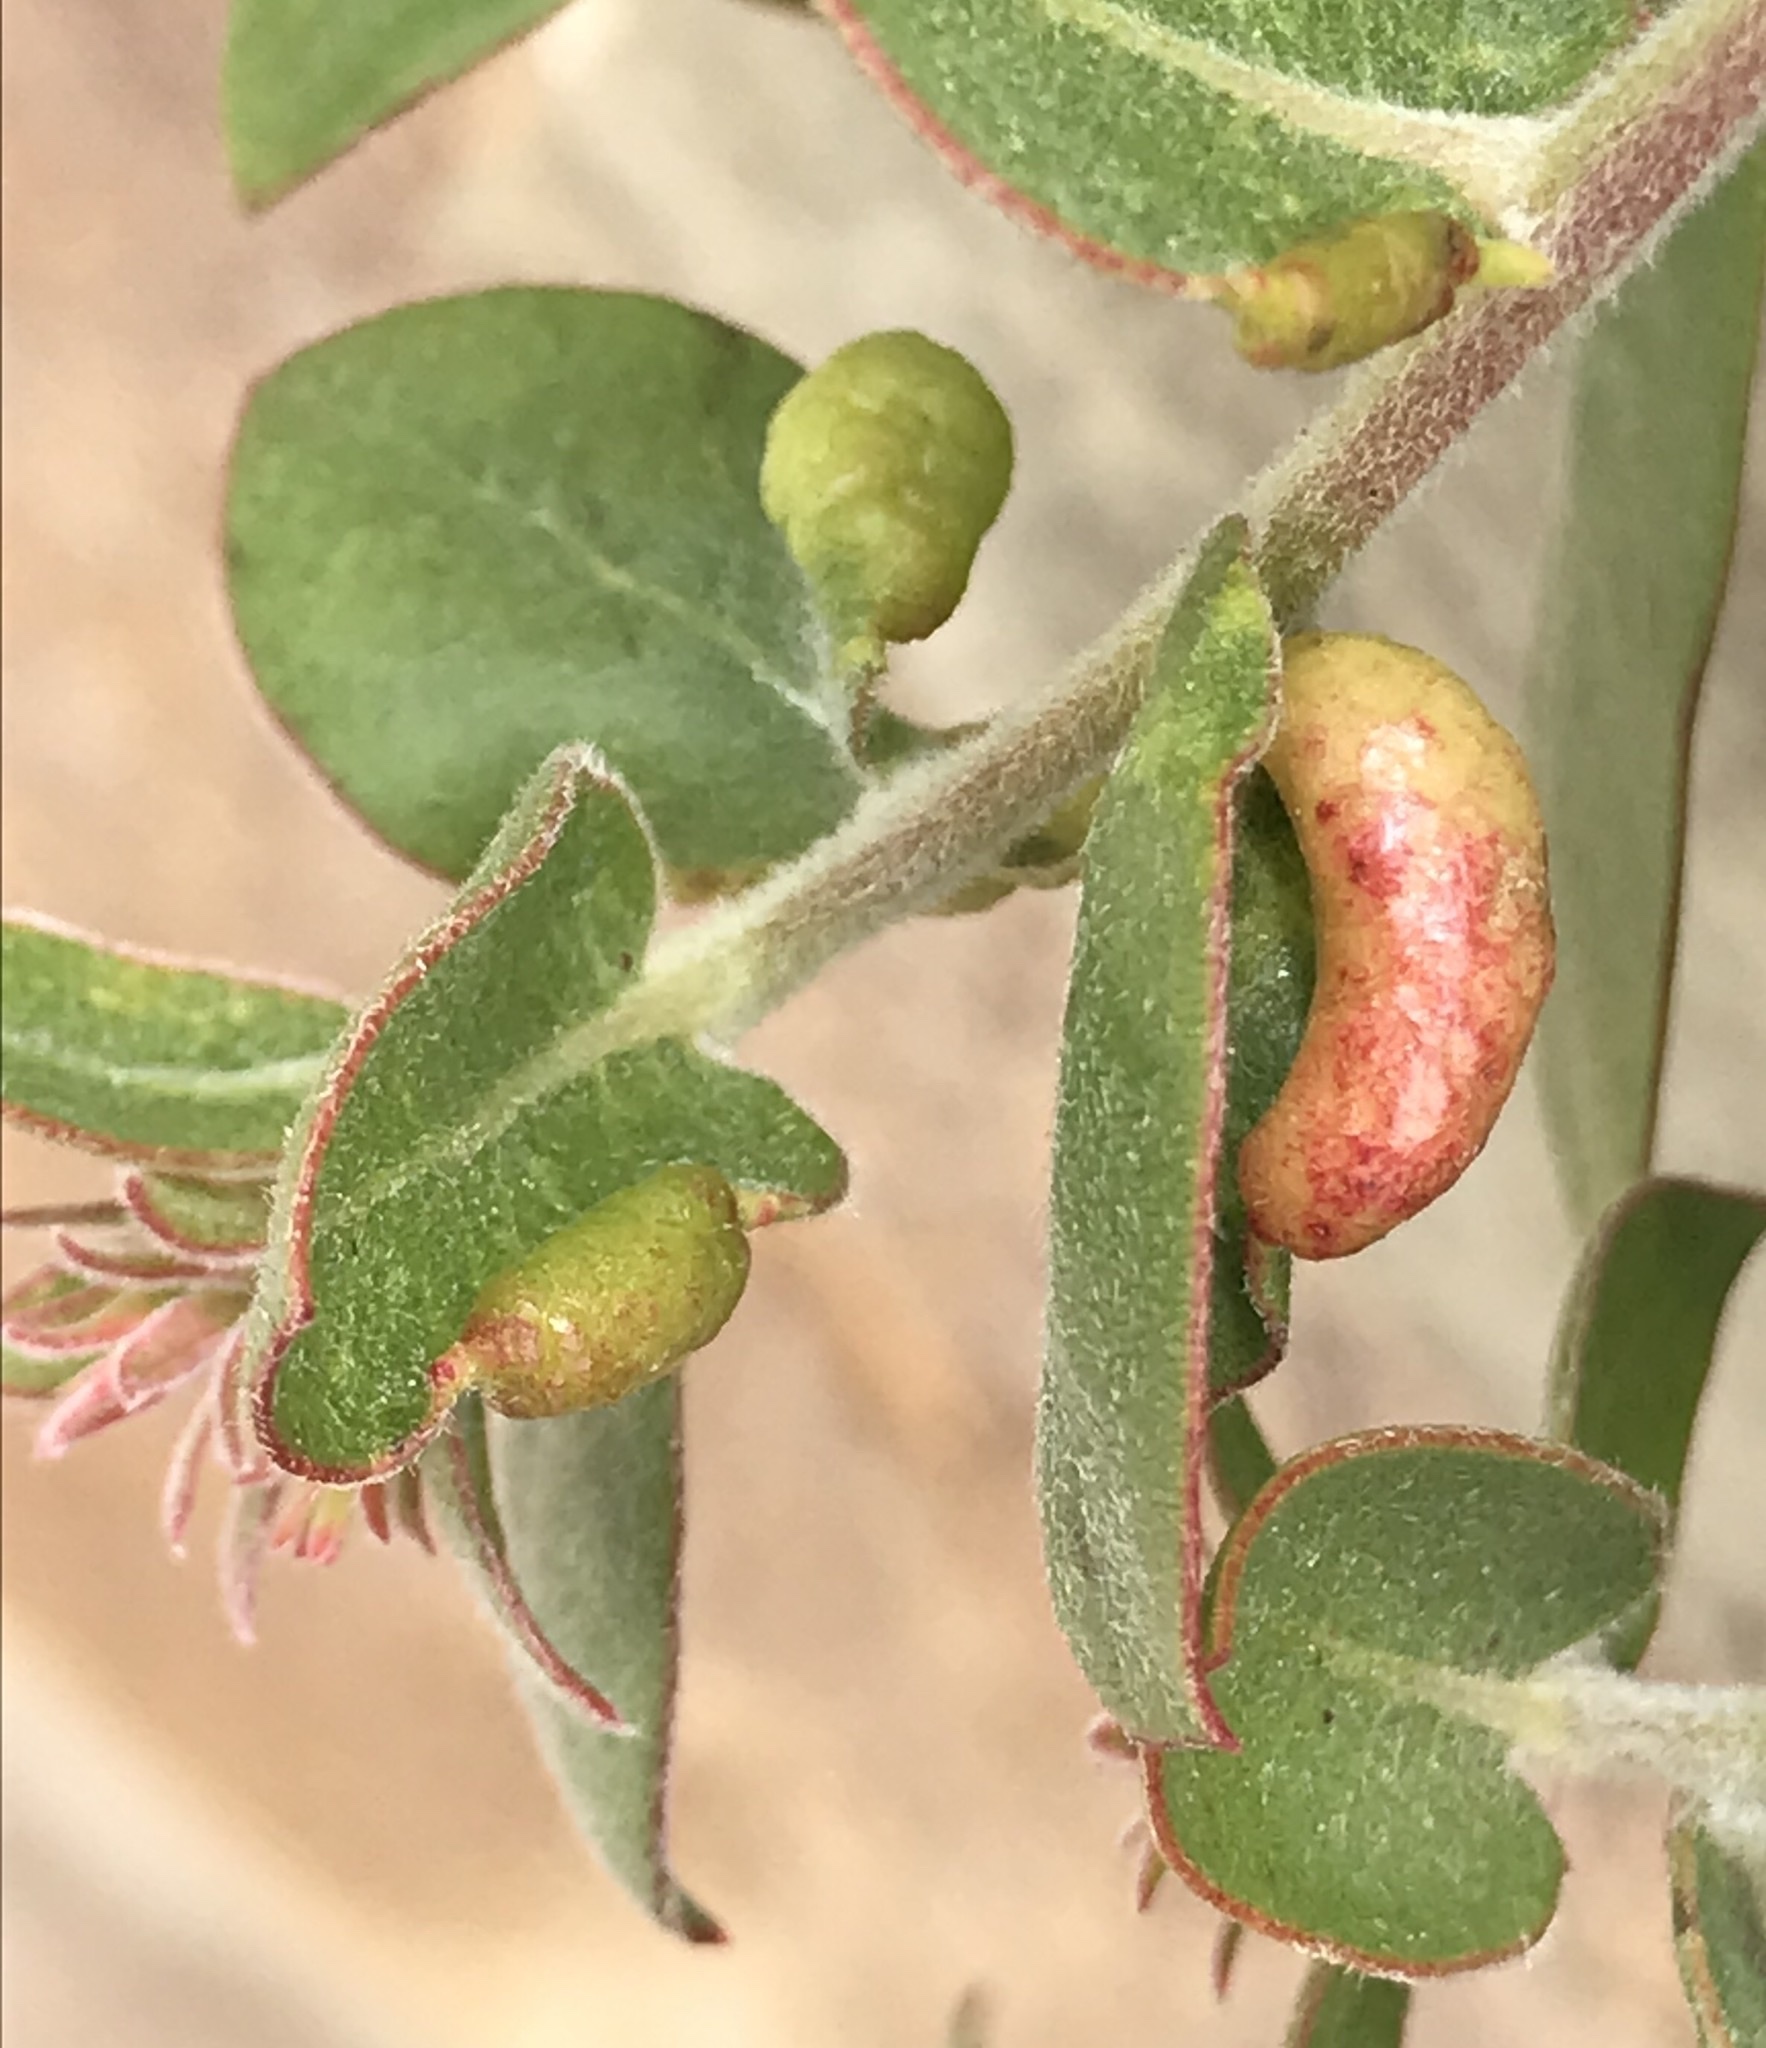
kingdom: Animalia
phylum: Arthropoda
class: Insecta
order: Hemiptera
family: Aphididae
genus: Tamalia
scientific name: Tamalia coweni
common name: Manzanita leafgall aphid
